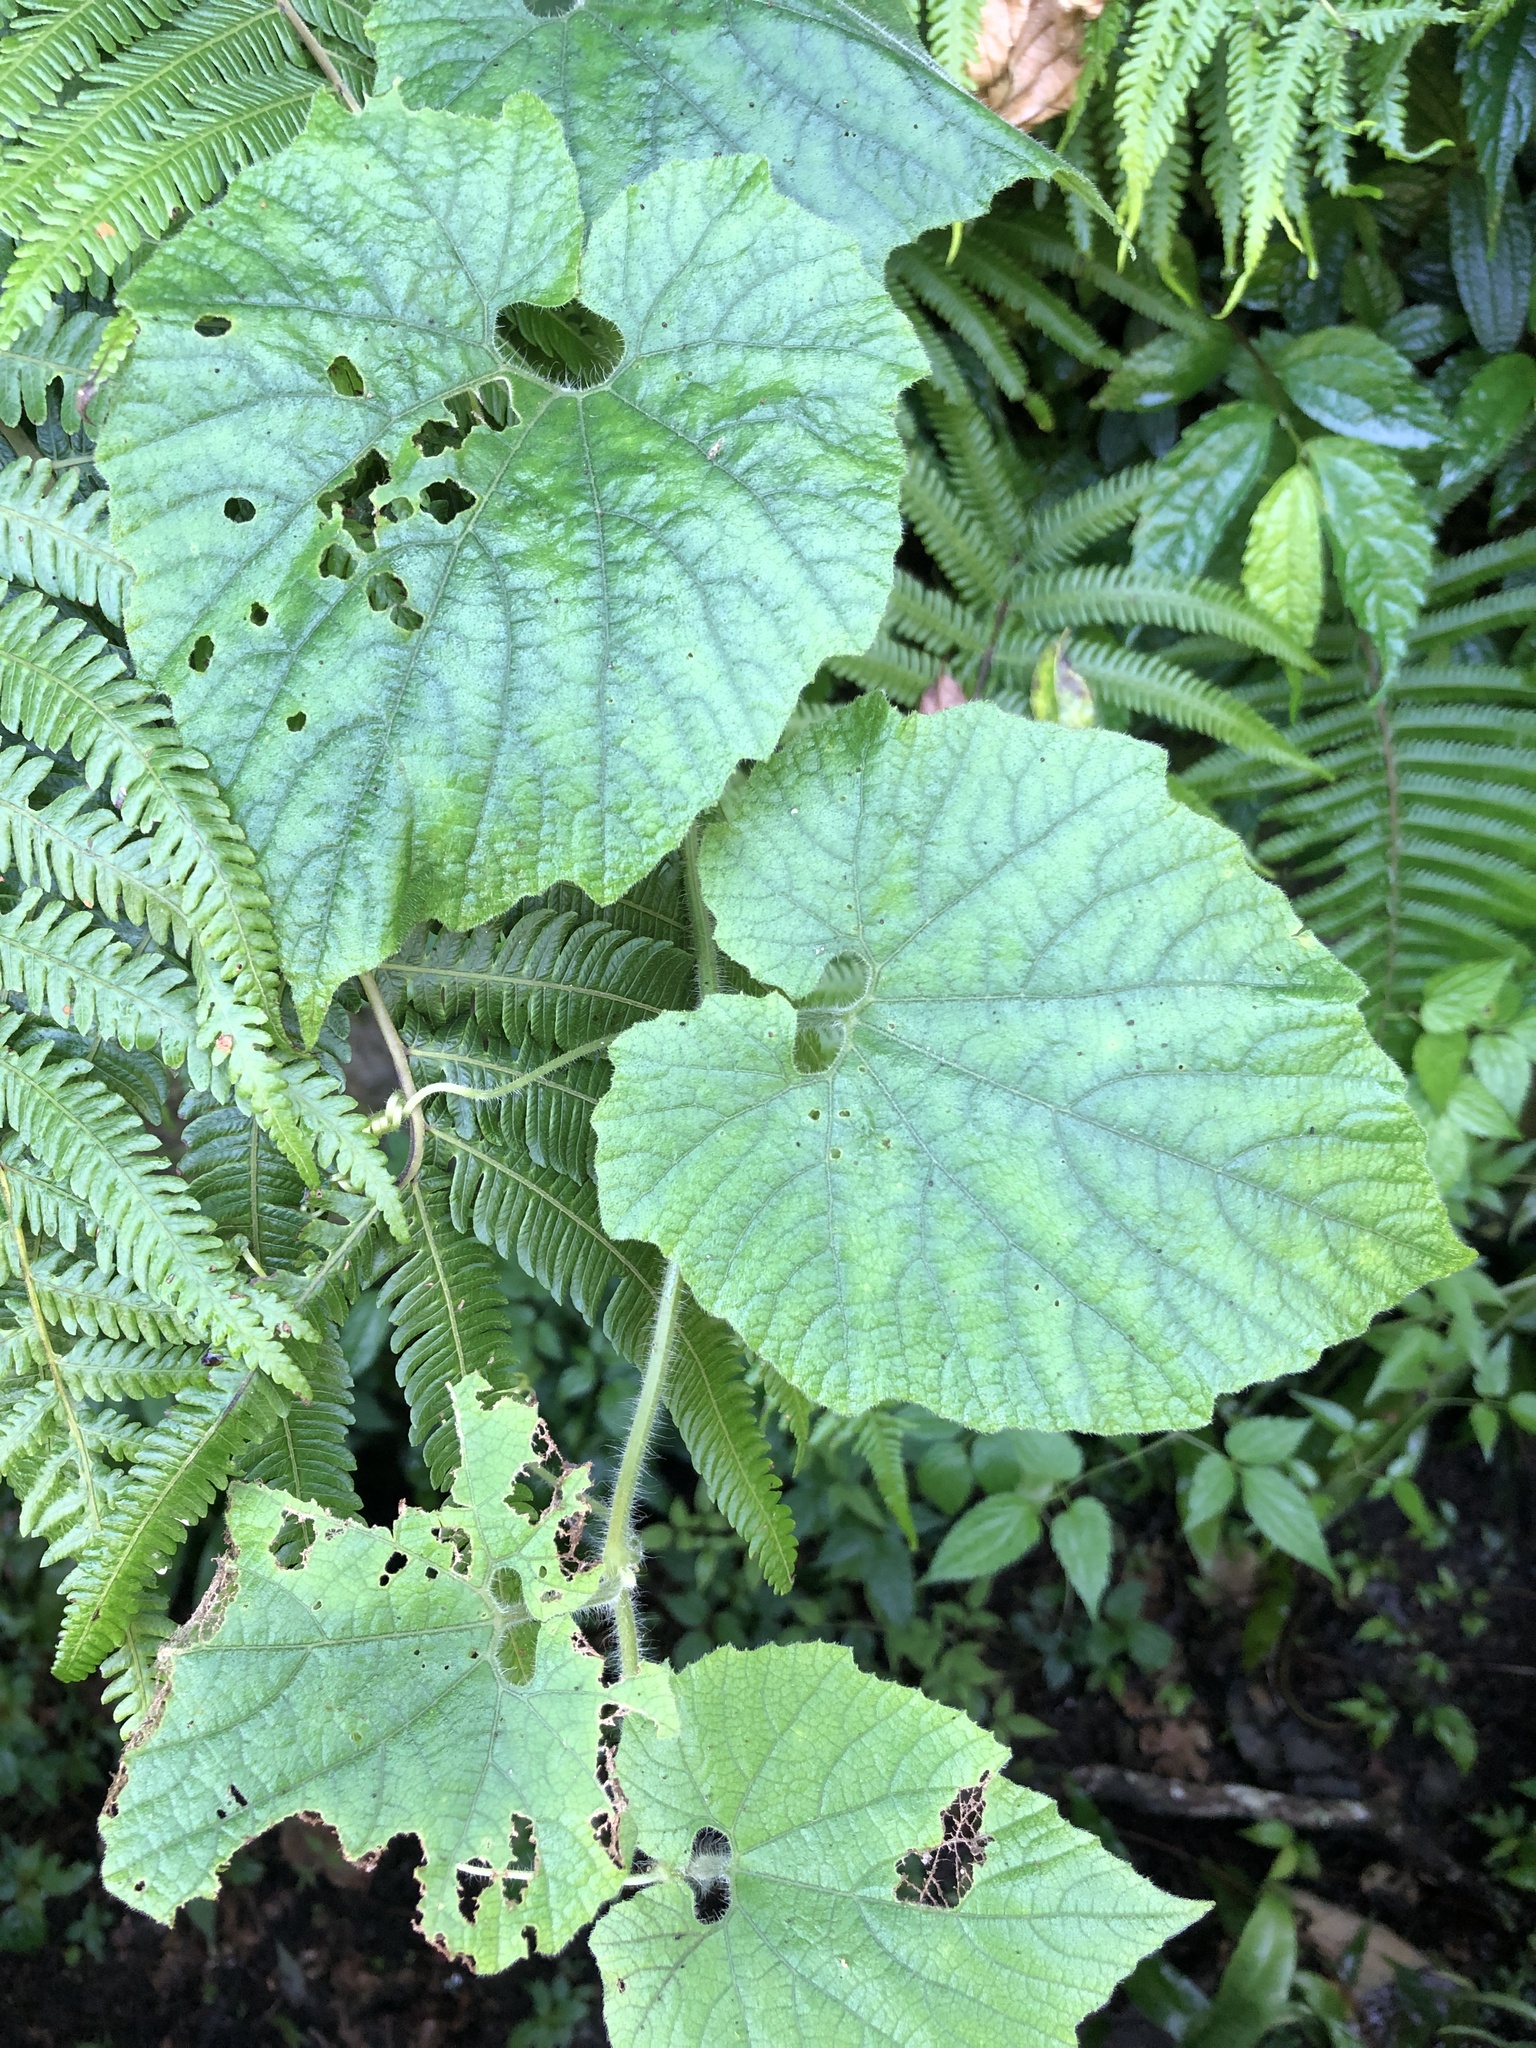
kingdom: Plantae
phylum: Tracheophyta
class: Magnoliopsida
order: Cucurbitales
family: Cucurbitaceae
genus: Thladiantha
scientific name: Thladiantha nudiflora
